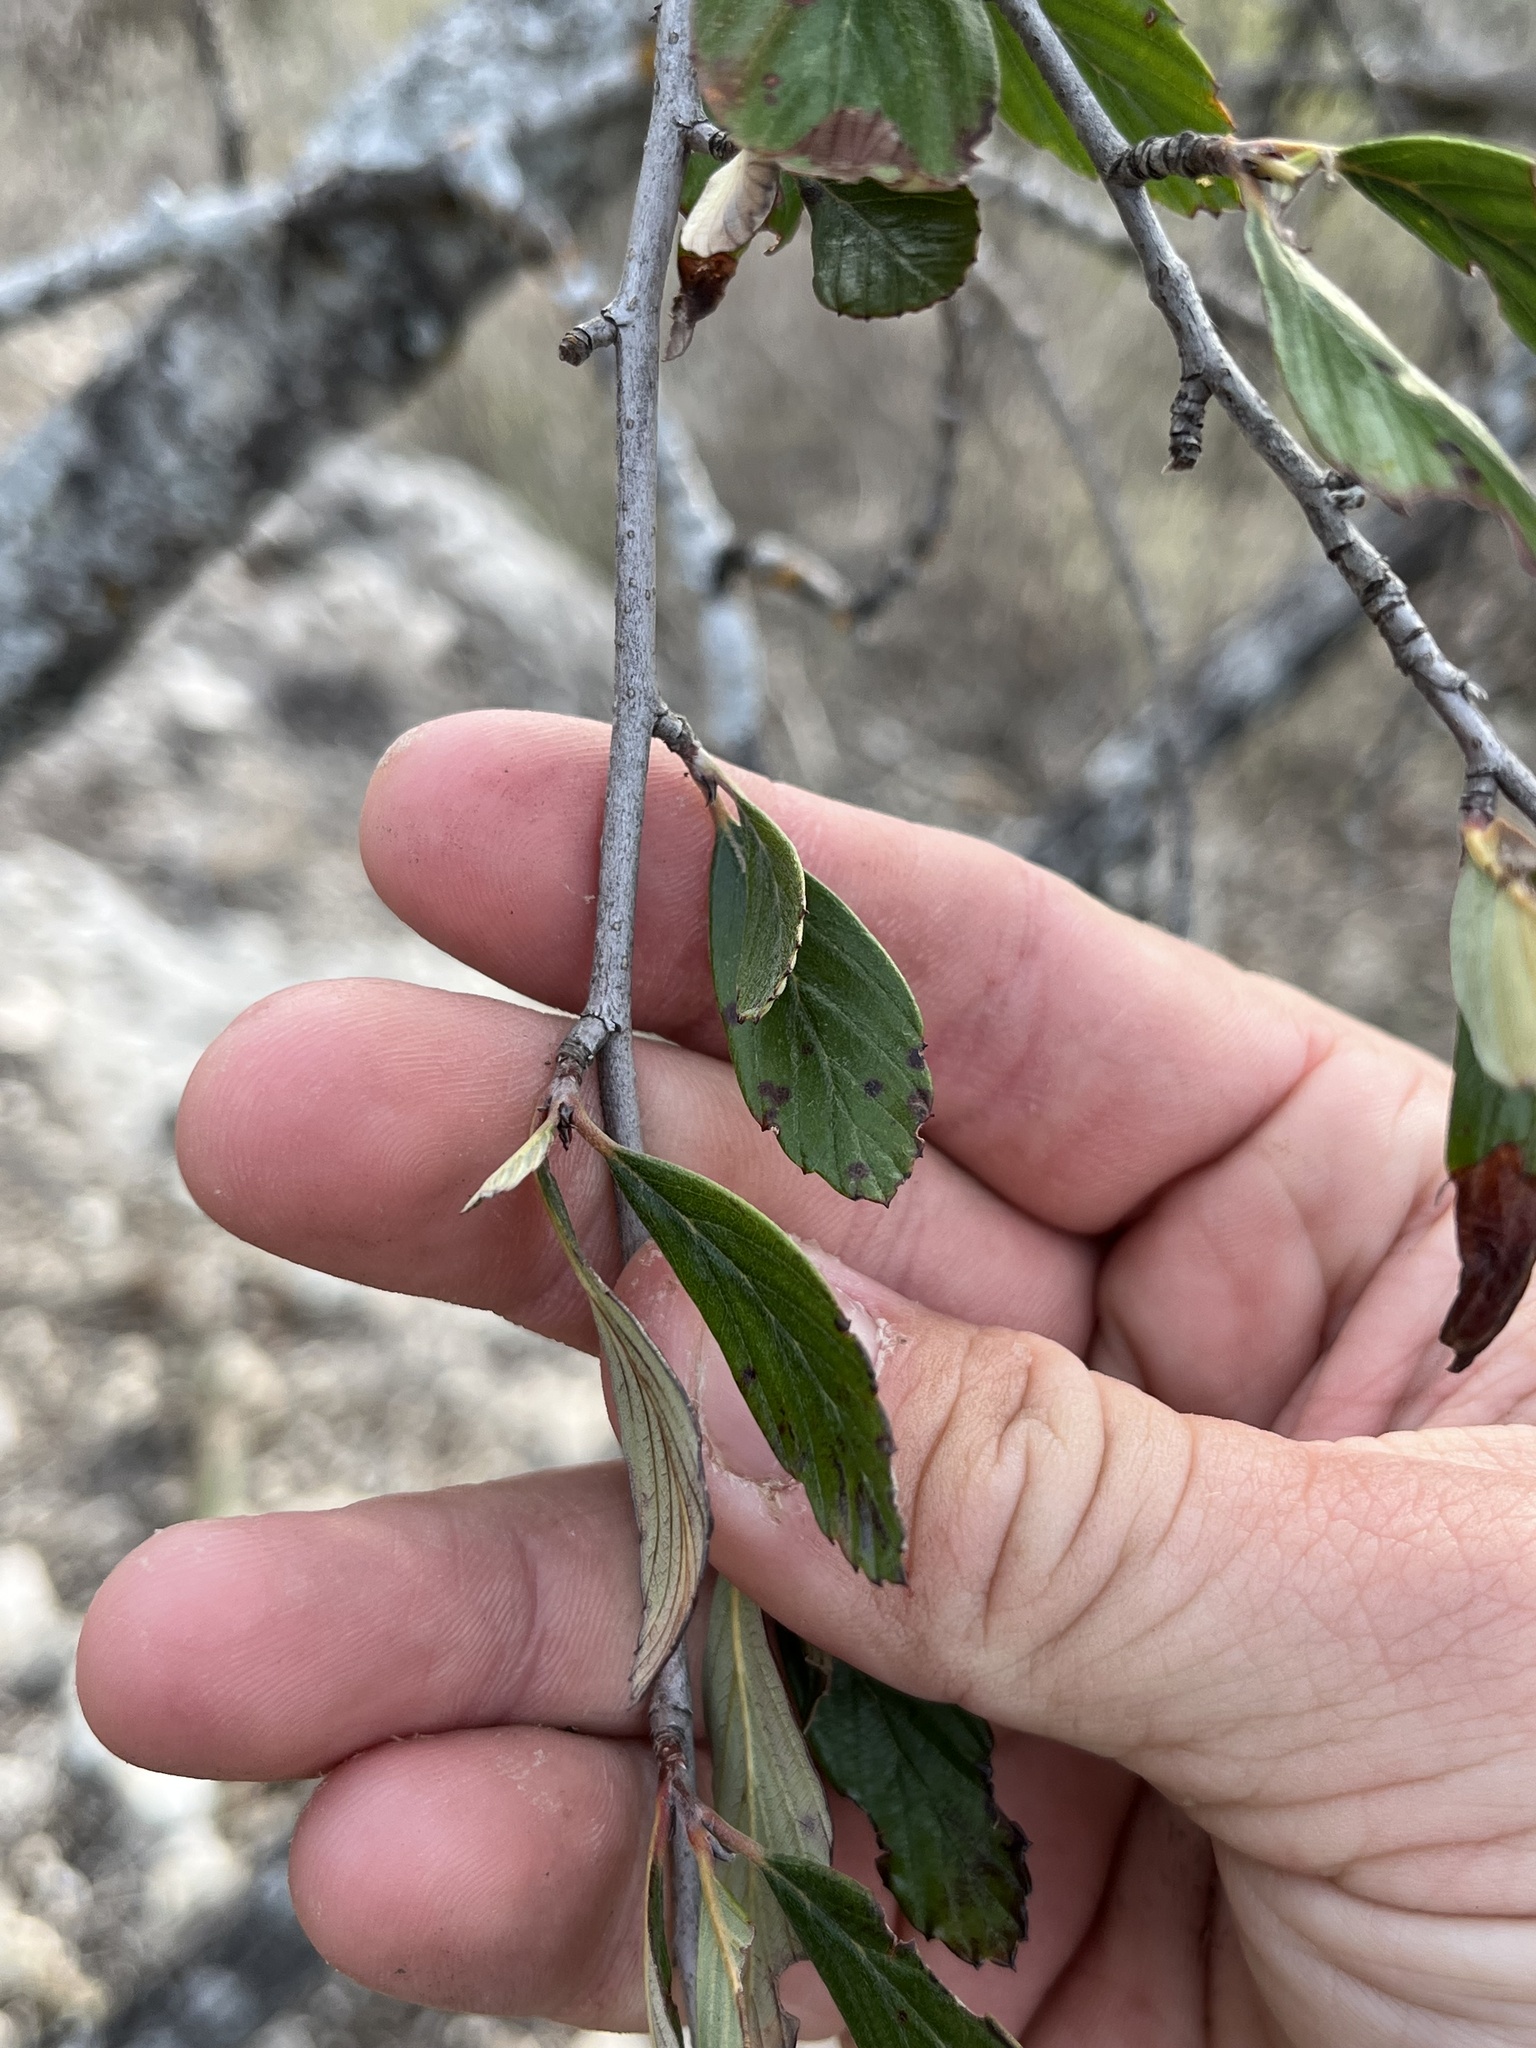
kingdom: Plantae
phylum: Tracheophyta
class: Magnoliopsida
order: Rosales
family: Rosaceae
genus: Cercocarpus
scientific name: Cercocarpus montanus
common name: Alder-leaf cercocarpus
